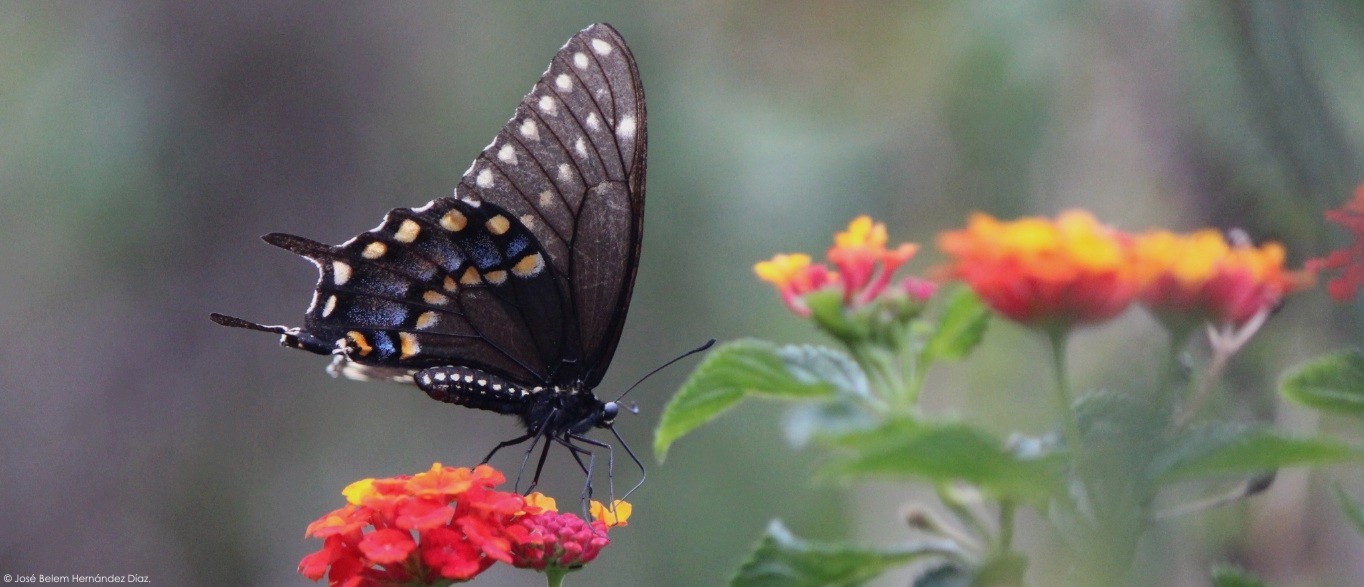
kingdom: Animalia
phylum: Arthropoda
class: Insecta
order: Lepidoptera
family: Papilionidae
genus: Papilio
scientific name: Papilio polyxenes
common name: Black swallowtail
